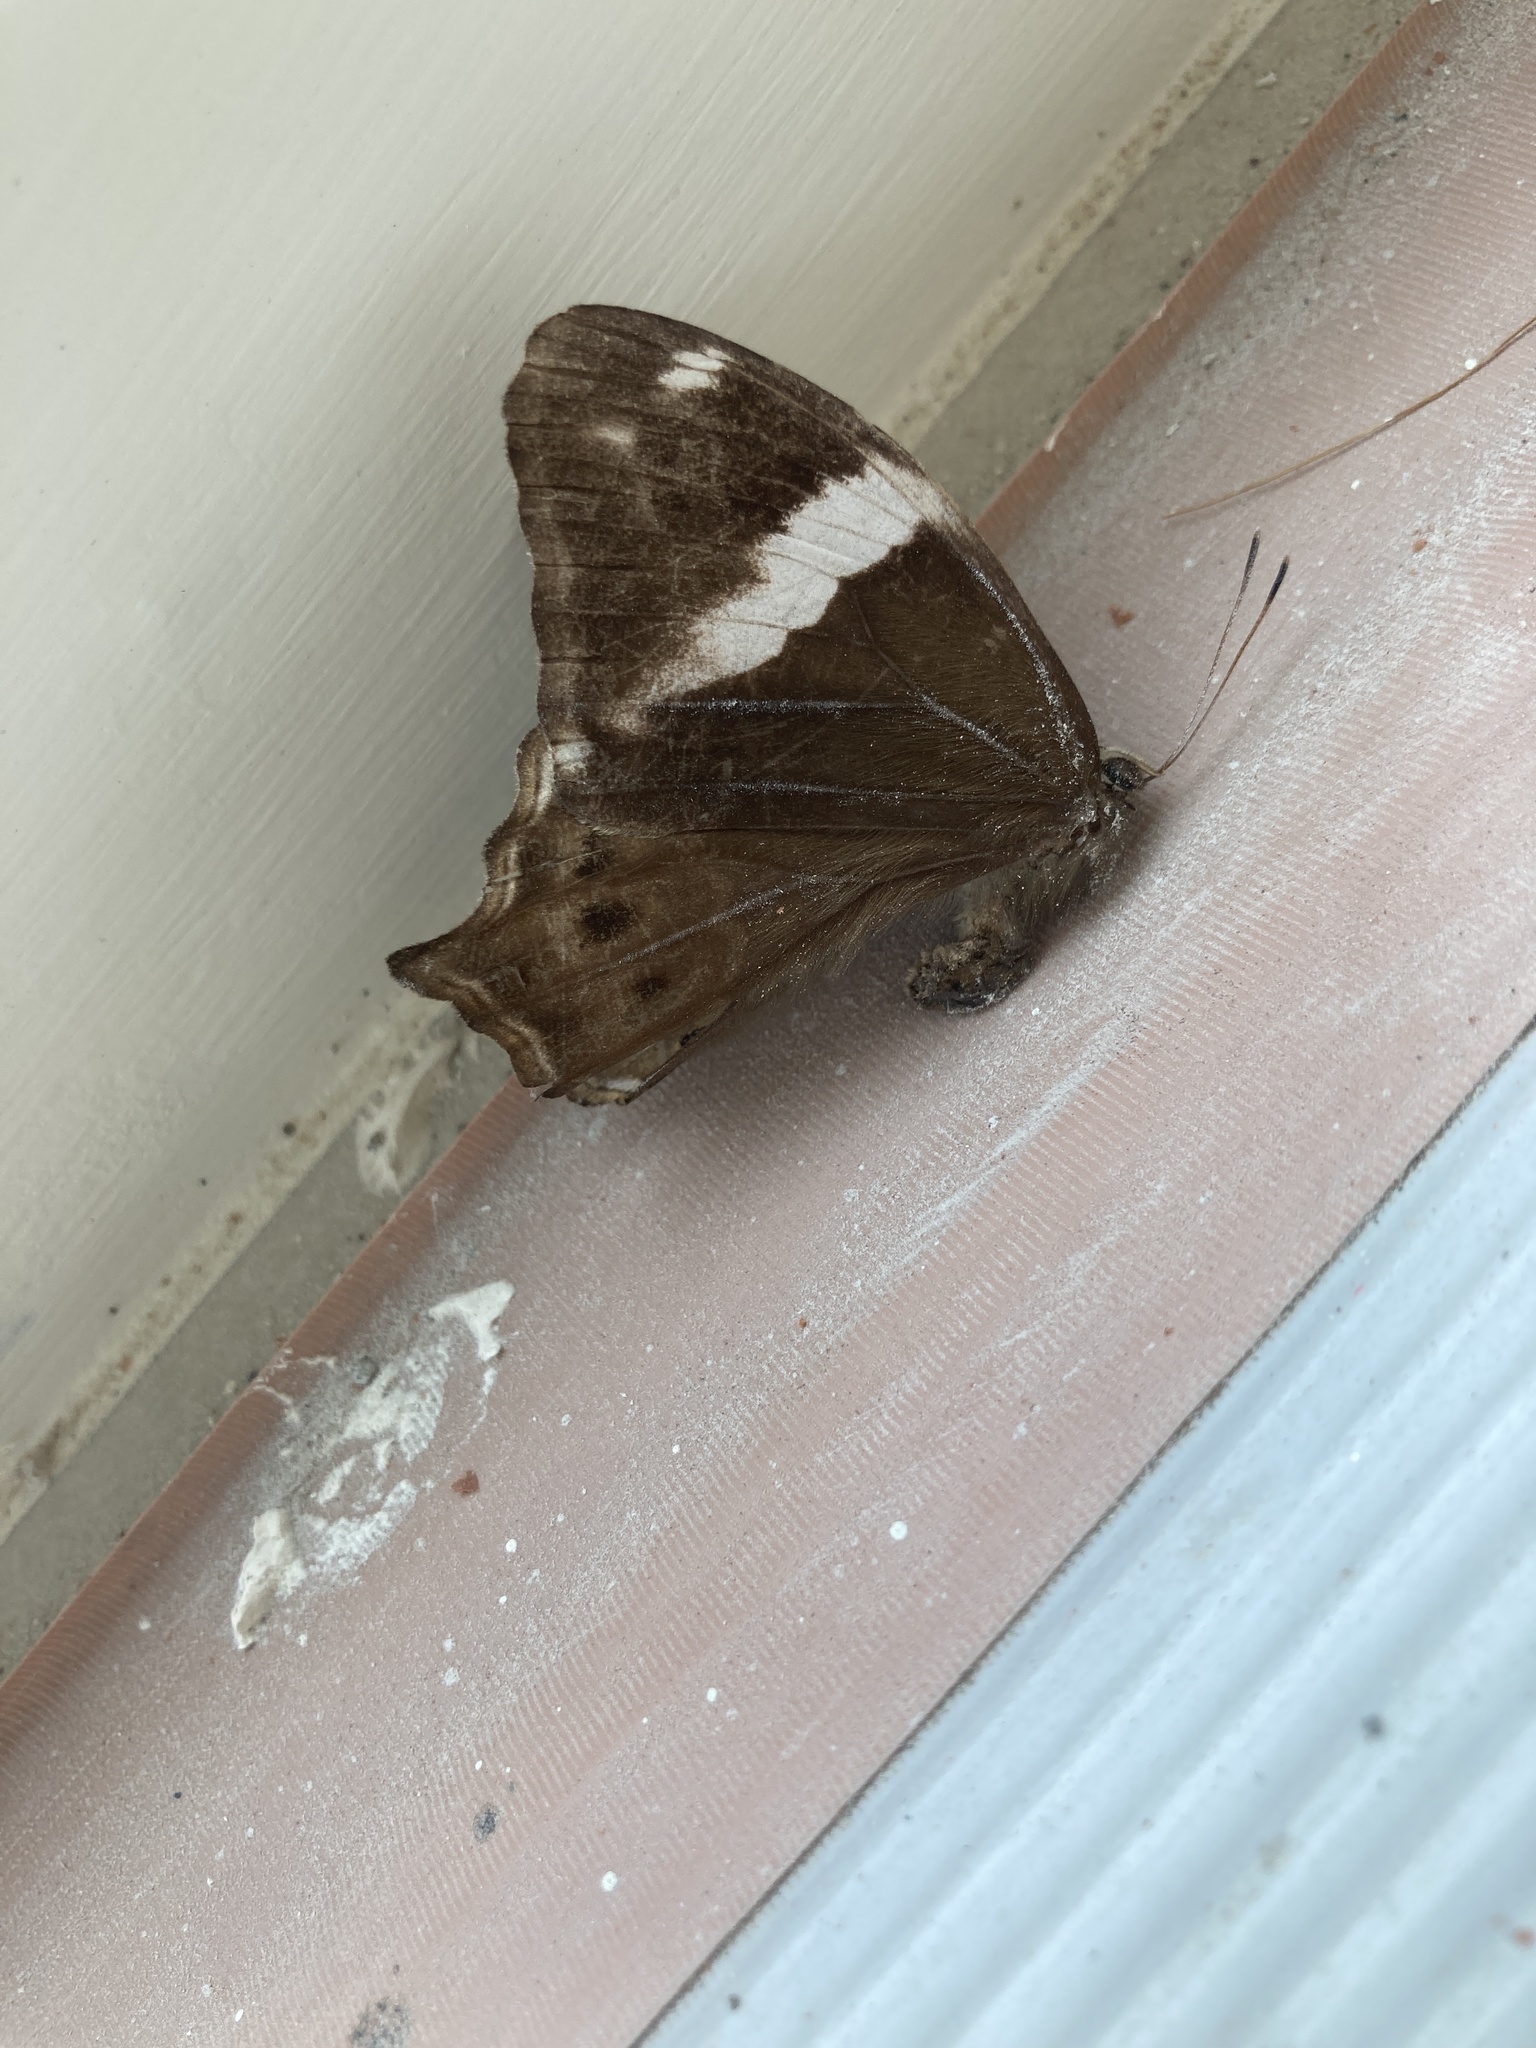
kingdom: Animalia
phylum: Arthropoda
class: Insecta
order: Lepidoptera
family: Nymphalidae
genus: Lethe
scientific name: Lethe europa
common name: Bamboo treebrown
